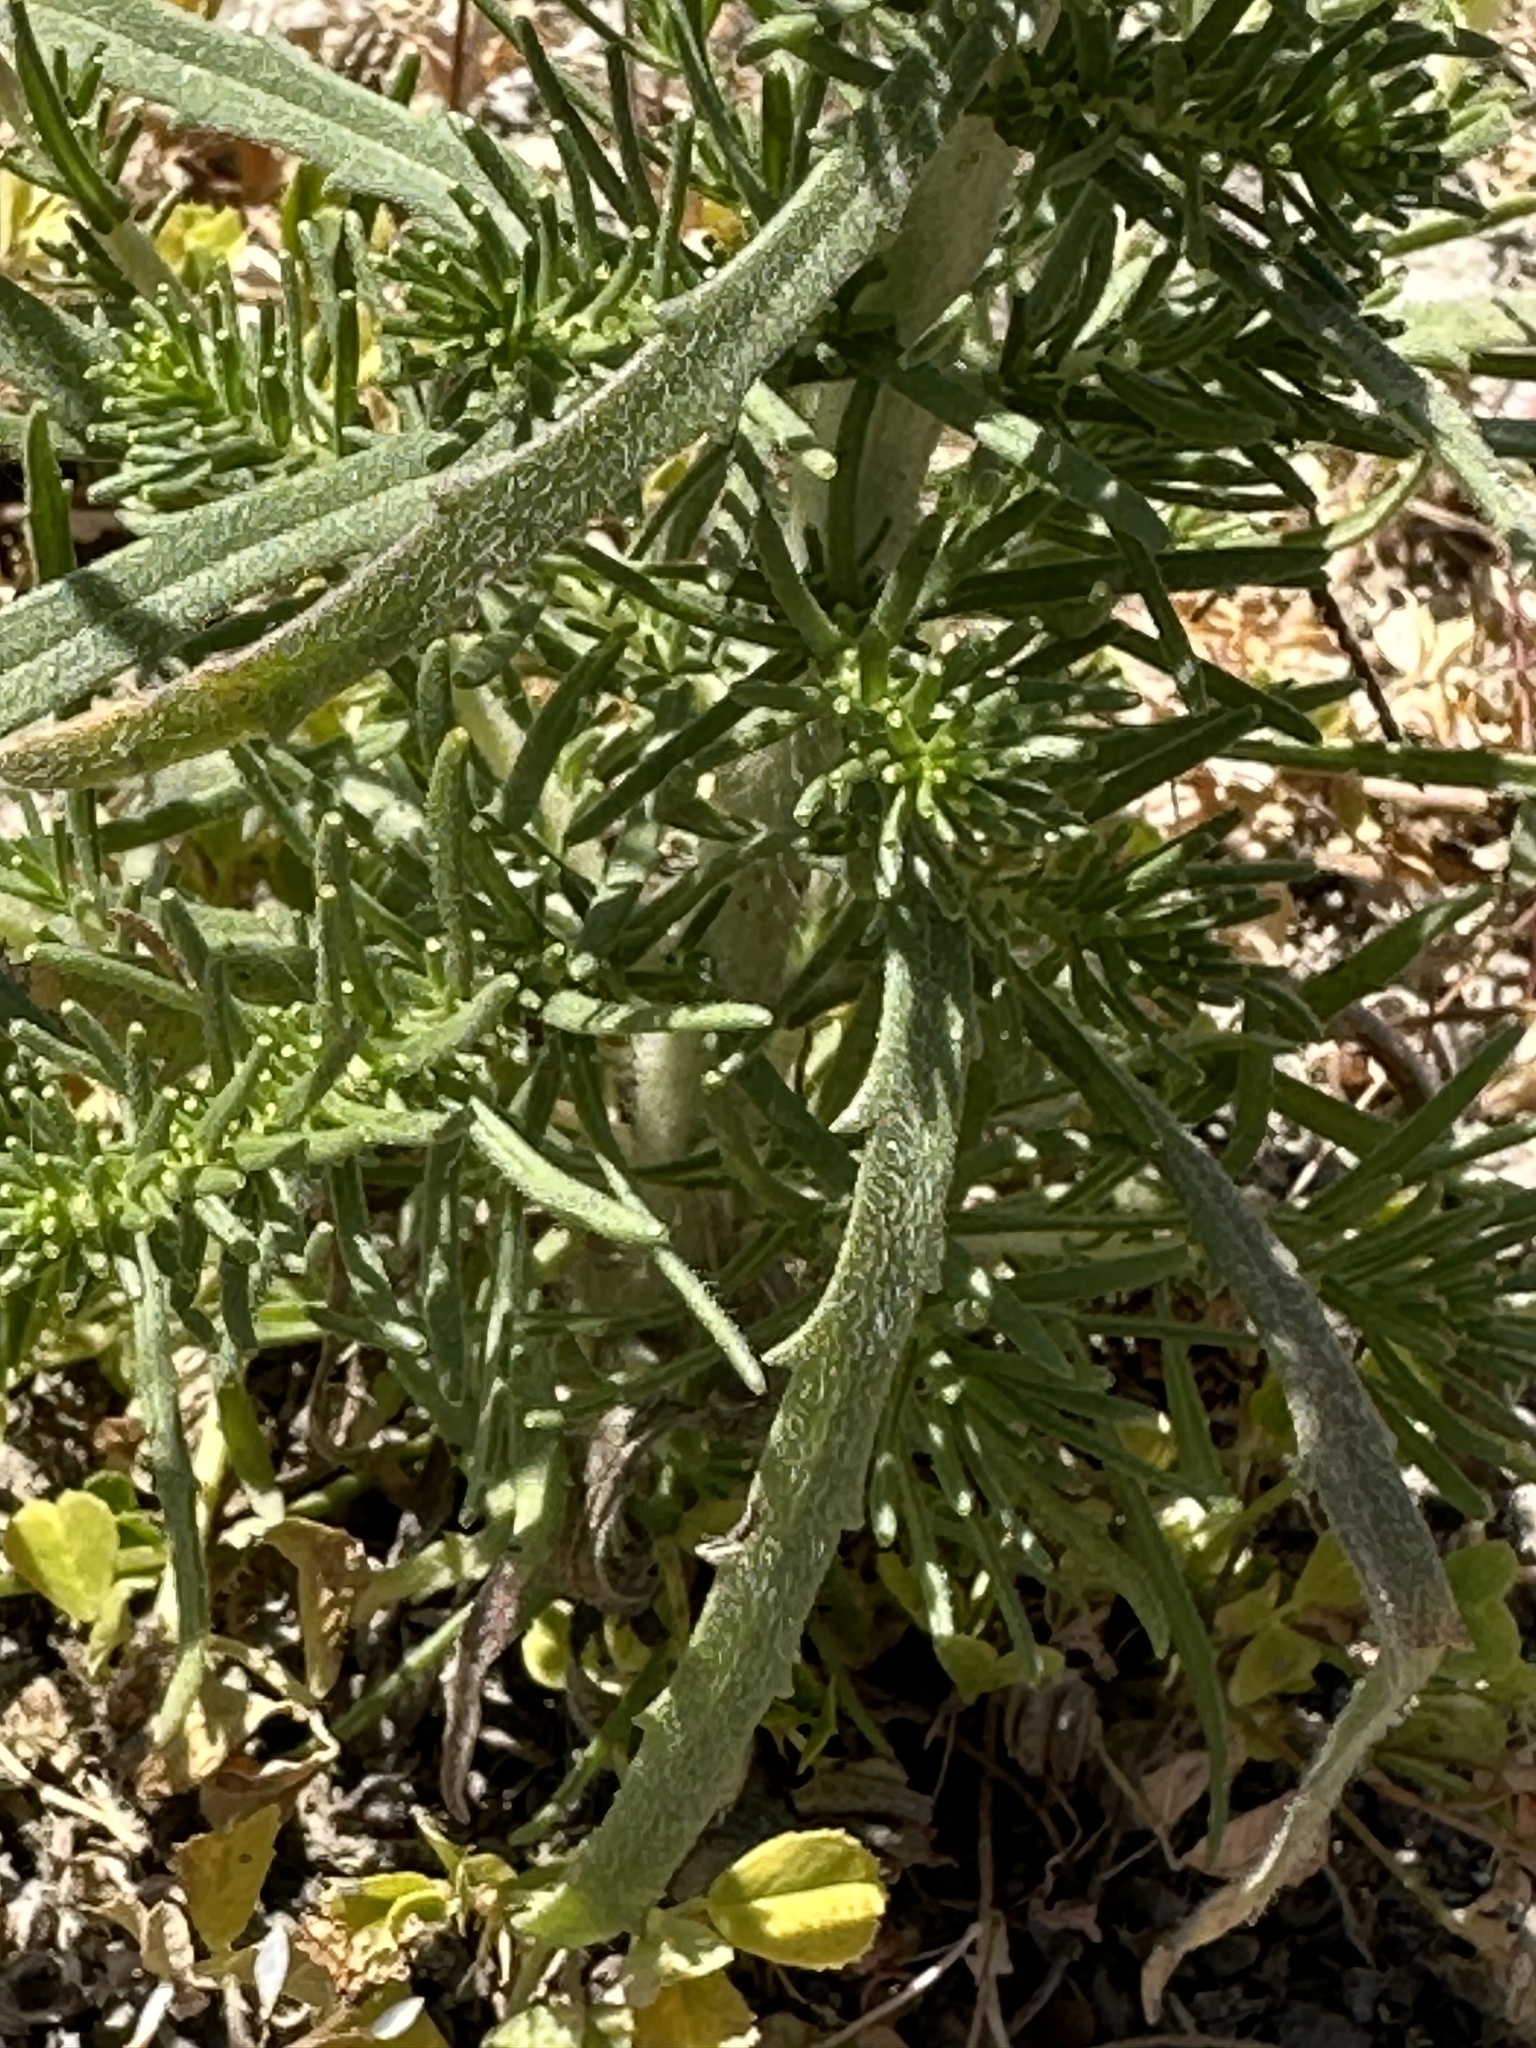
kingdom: Plantae
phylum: Tracheophyta
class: Magnoliopsida
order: Asterales
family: Asteraceae
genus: Holocarpha
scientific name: Holocarpha virgata
